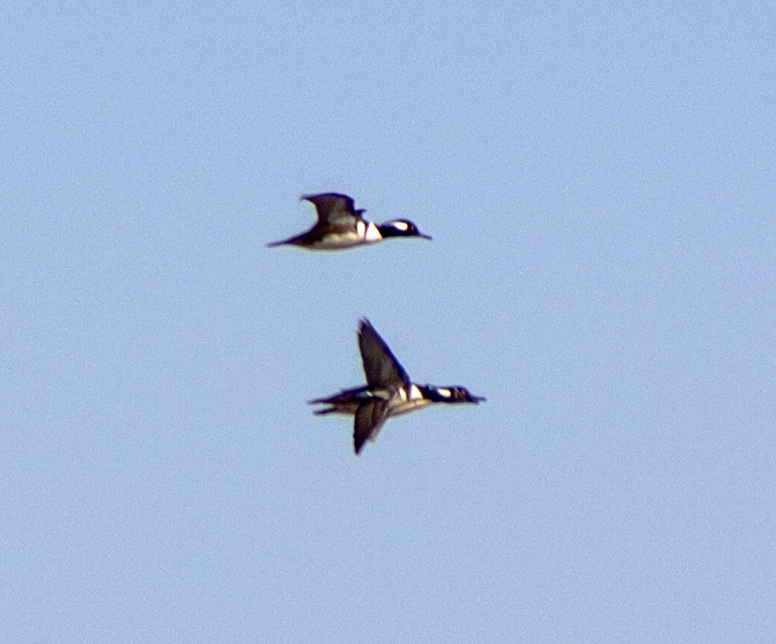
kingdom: Animalia
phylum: Chordata
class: Aves
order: Anseriformes
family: Anatidae
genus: Lophodytes
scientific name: Lophodytes cucullatus
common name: Hooded merganser
